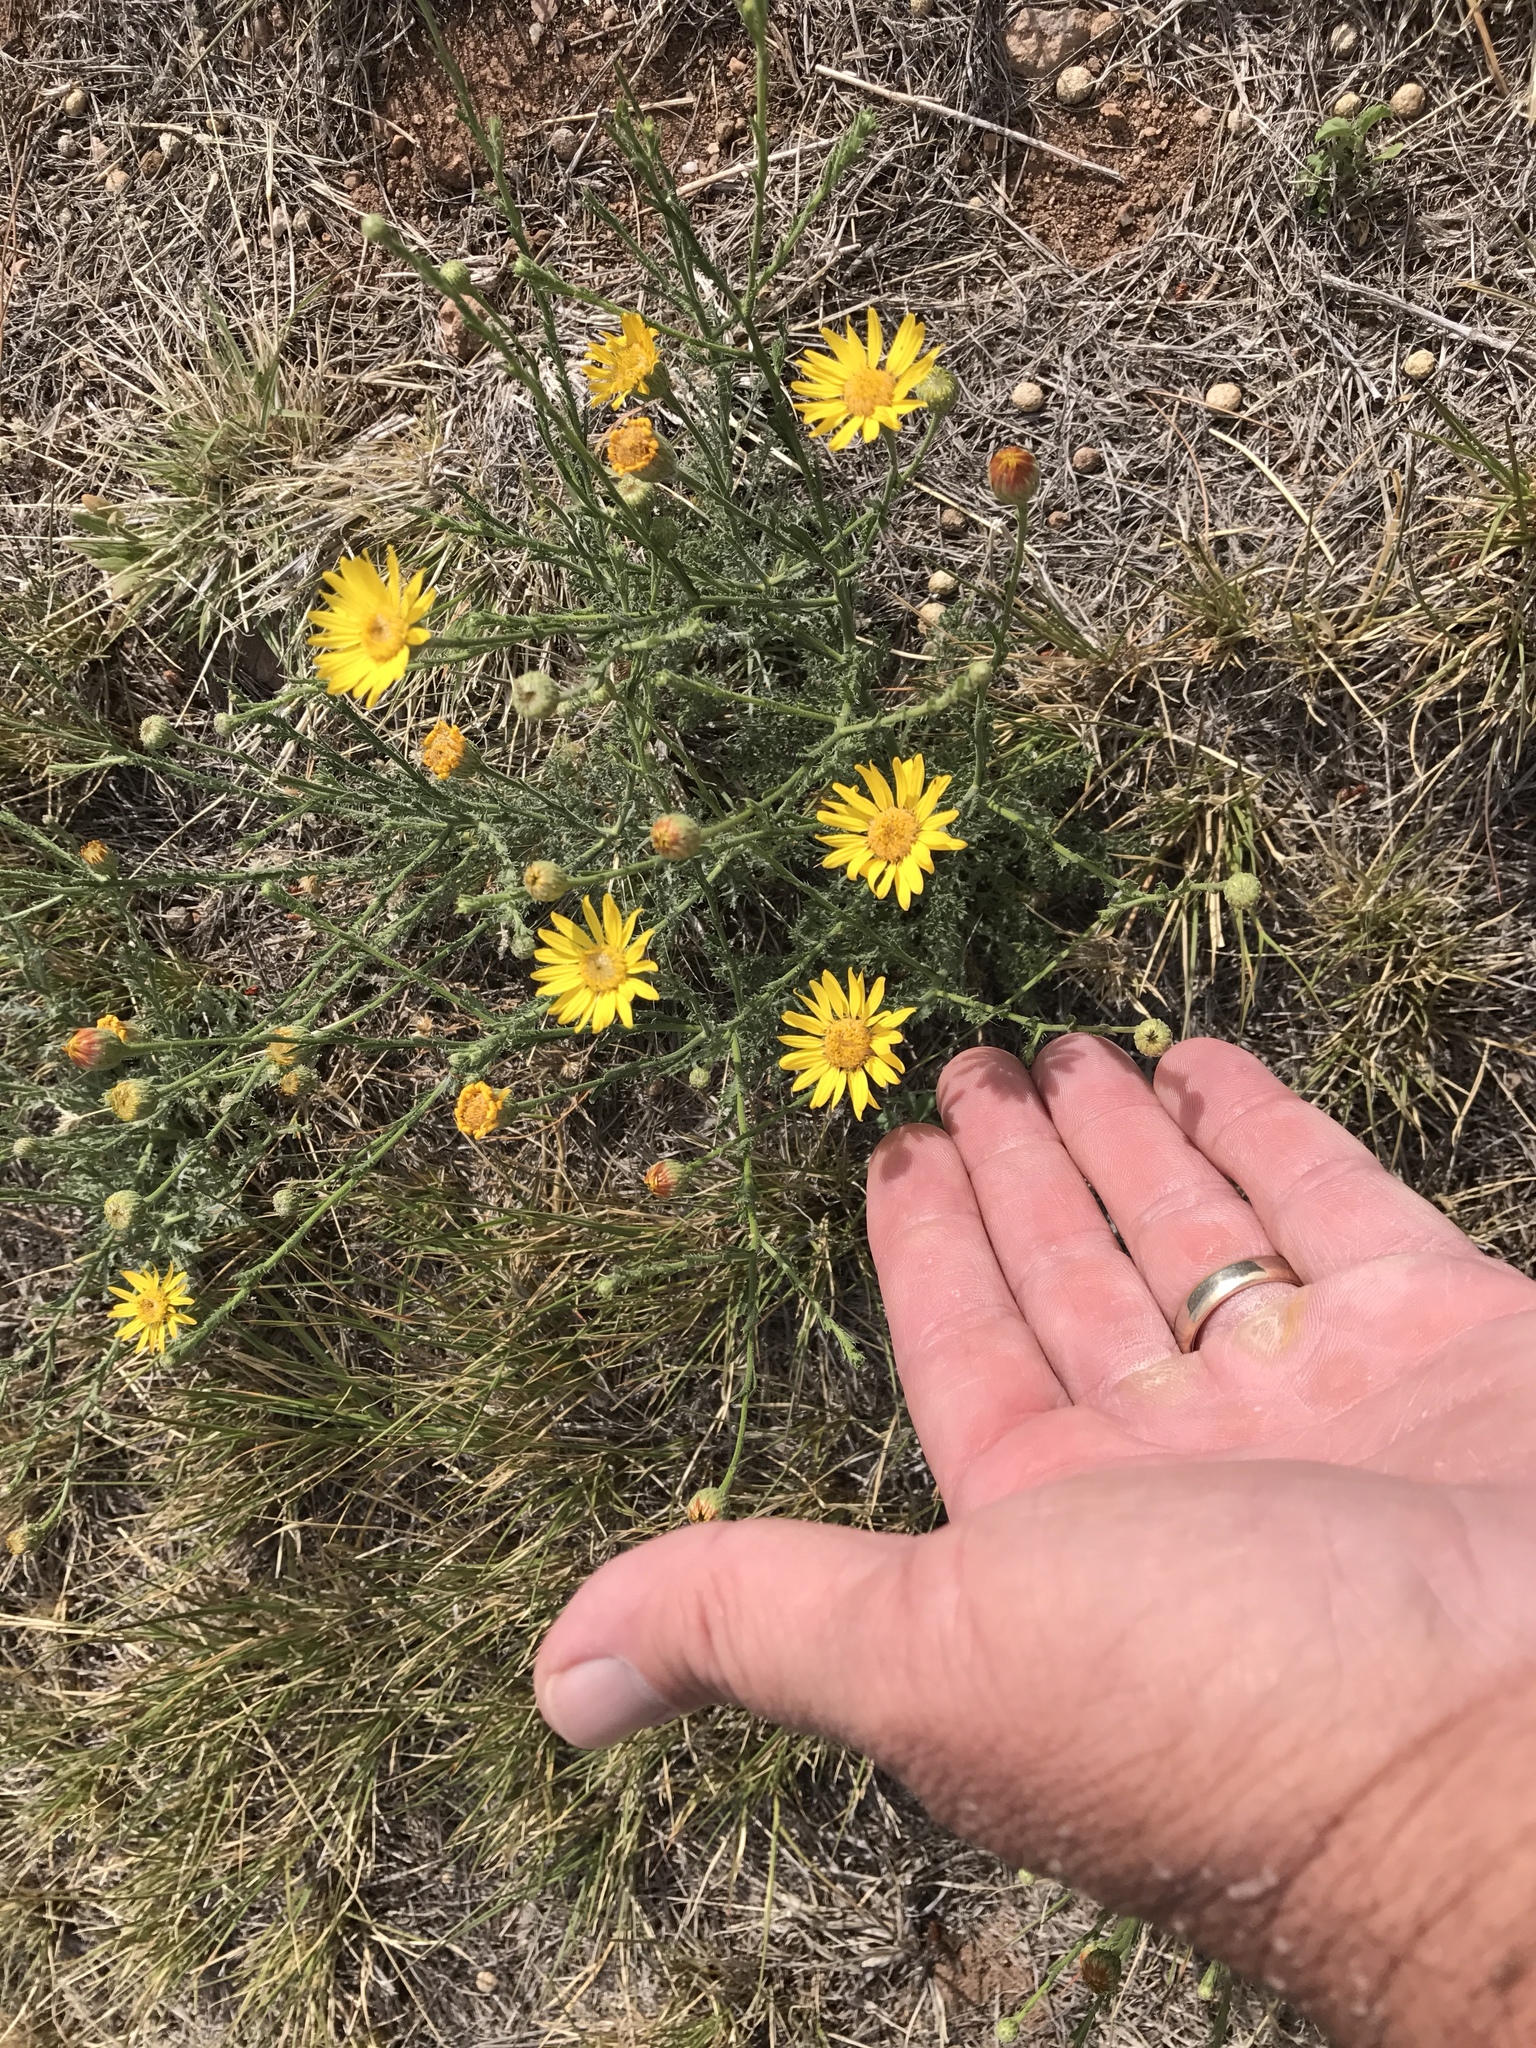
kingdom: Plantae
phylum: Tracheophyta
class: Magnoliopsida
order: Asterales
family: Asteraceae
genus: Xanthisma
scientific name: Xanthisma spinulosum
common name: Spiny goldenweed
